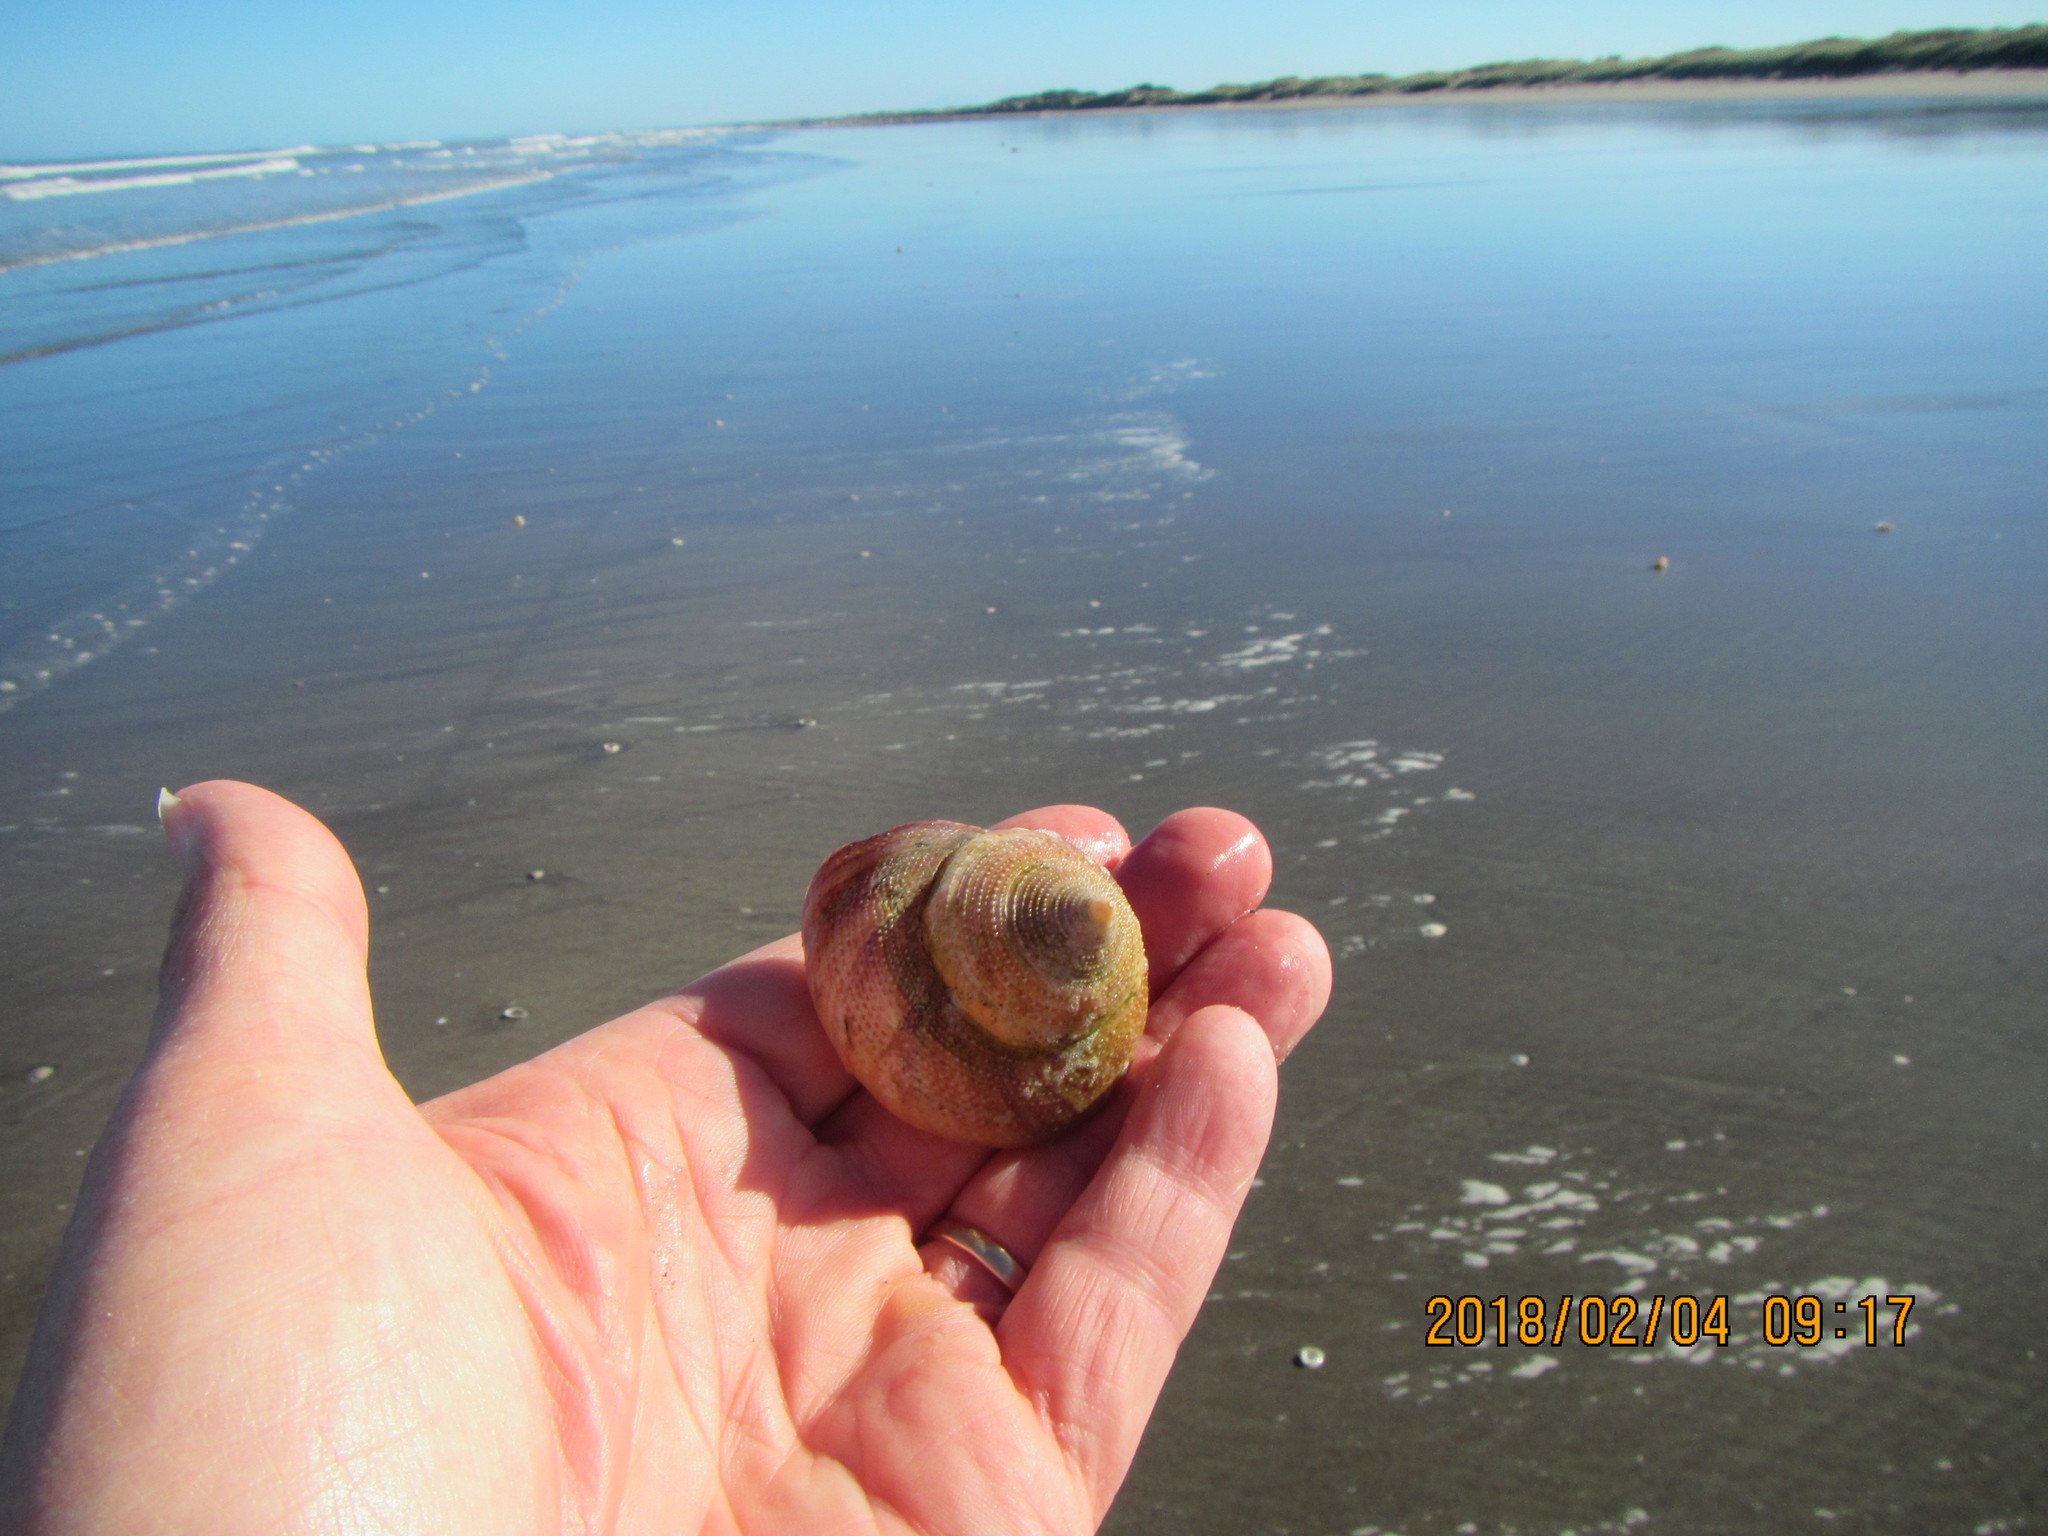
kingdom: Animalia
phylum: Mollusca
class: Gastropoda
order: Trochida
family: Calliostomatidae
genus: Maurea
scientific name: Maurea selecta
